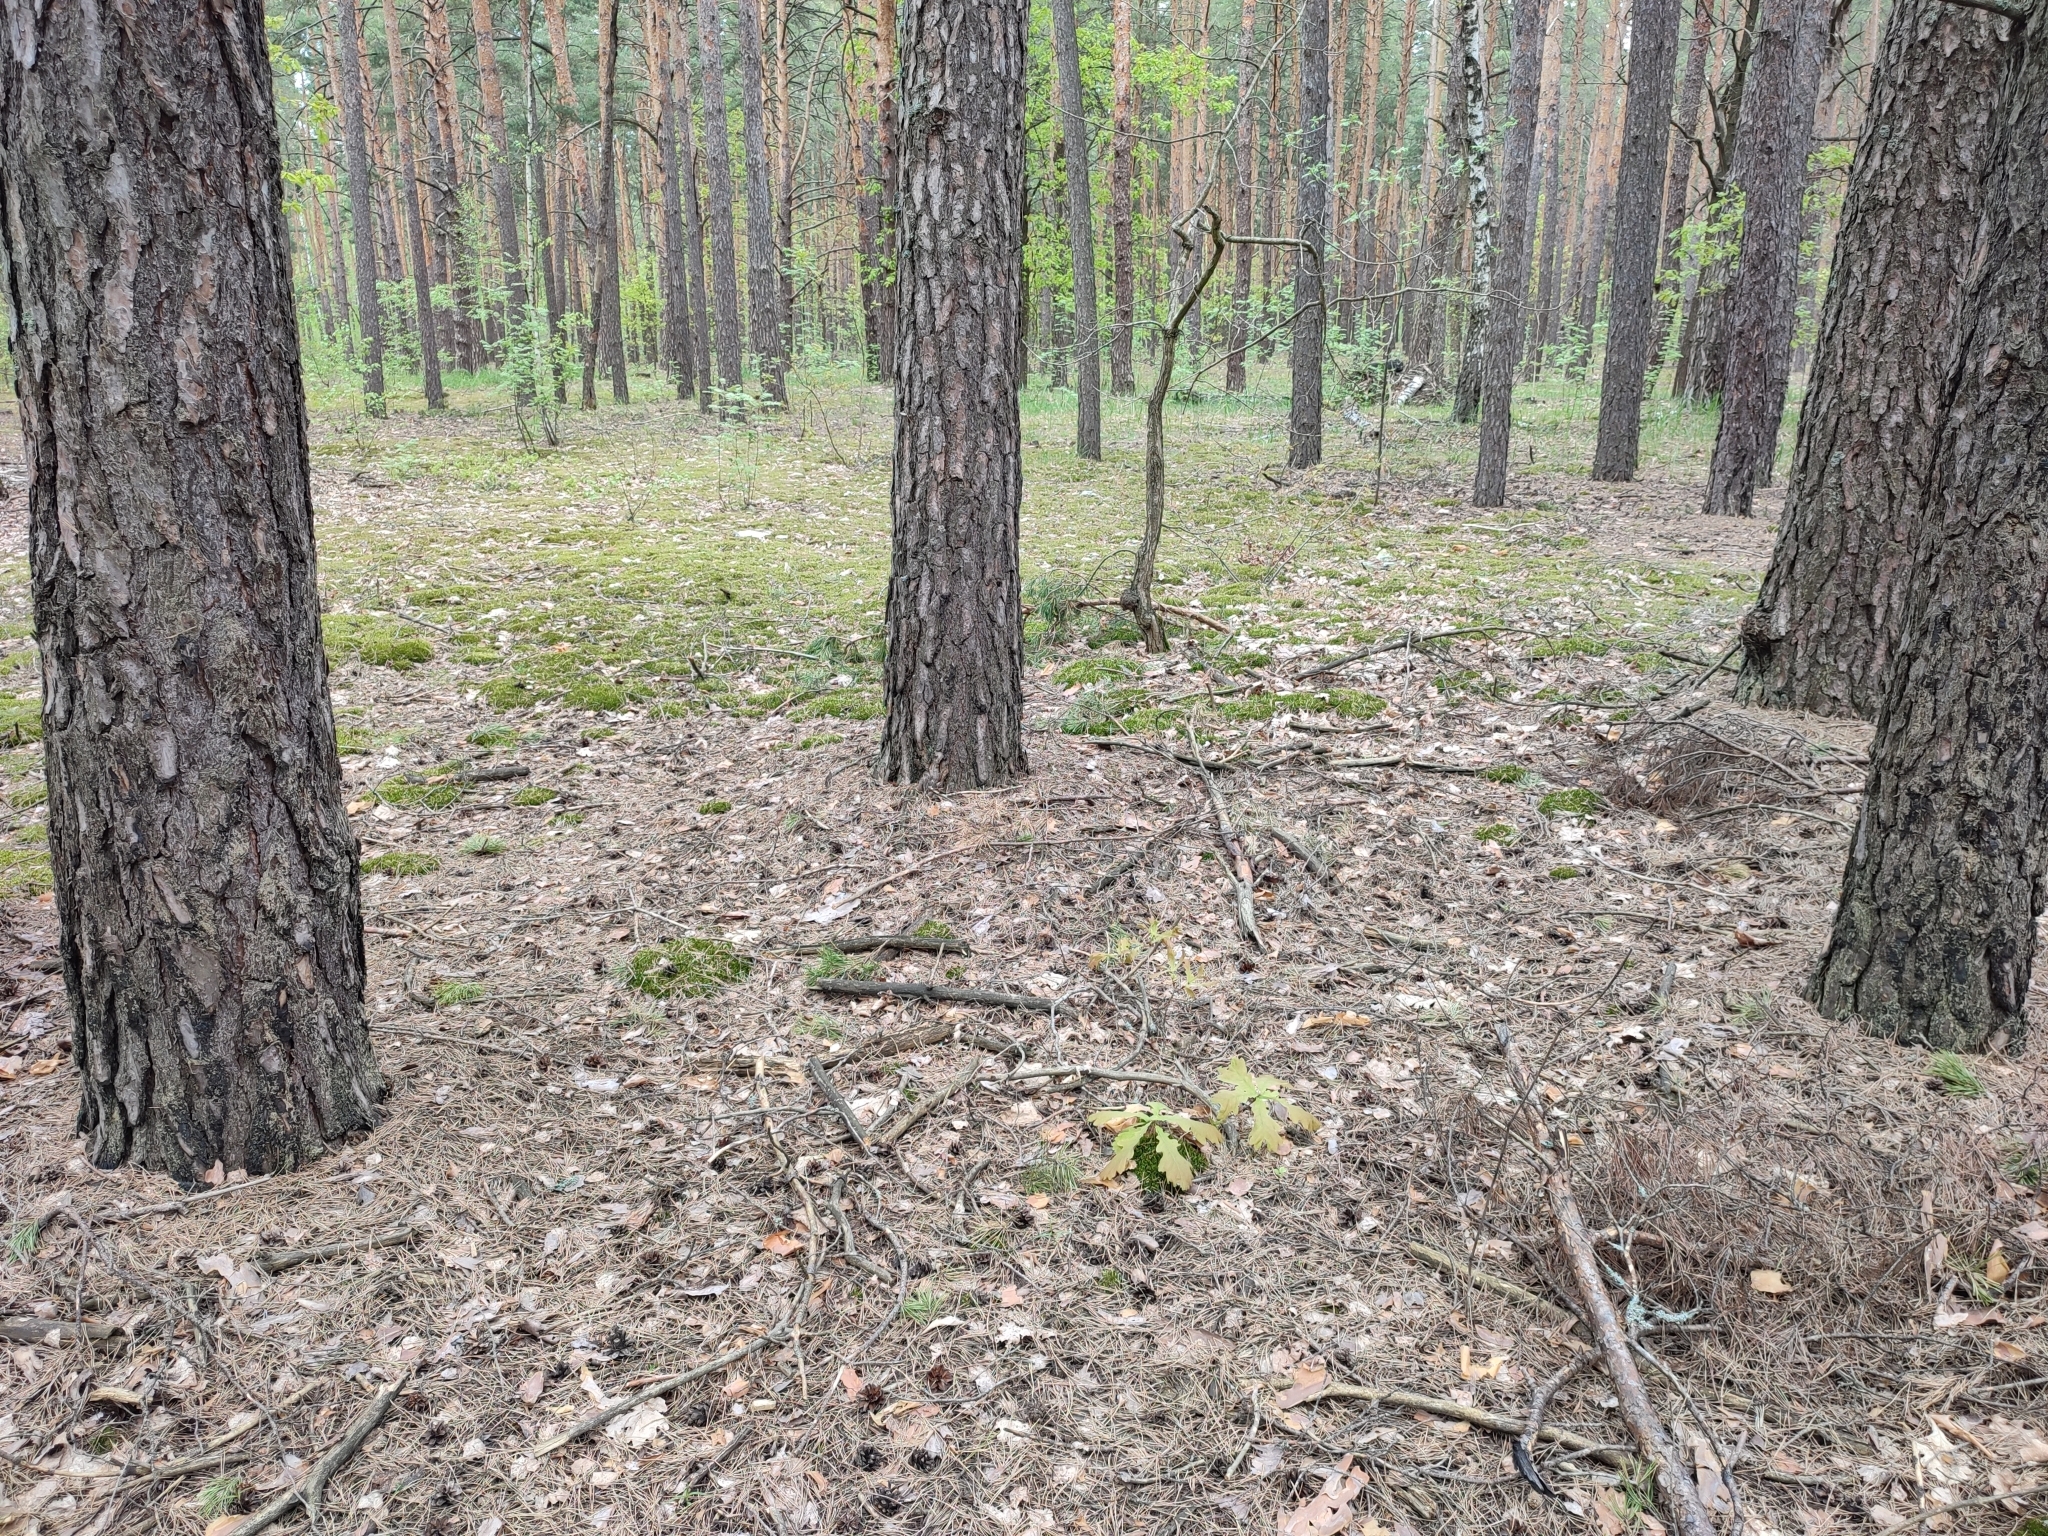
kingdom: Plantae
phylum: Tracheophyta
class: Magnoliopsida
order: Fagales
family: Fagaceae
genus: Quercus
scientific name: Quercus robur
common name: Pedunculate oak
